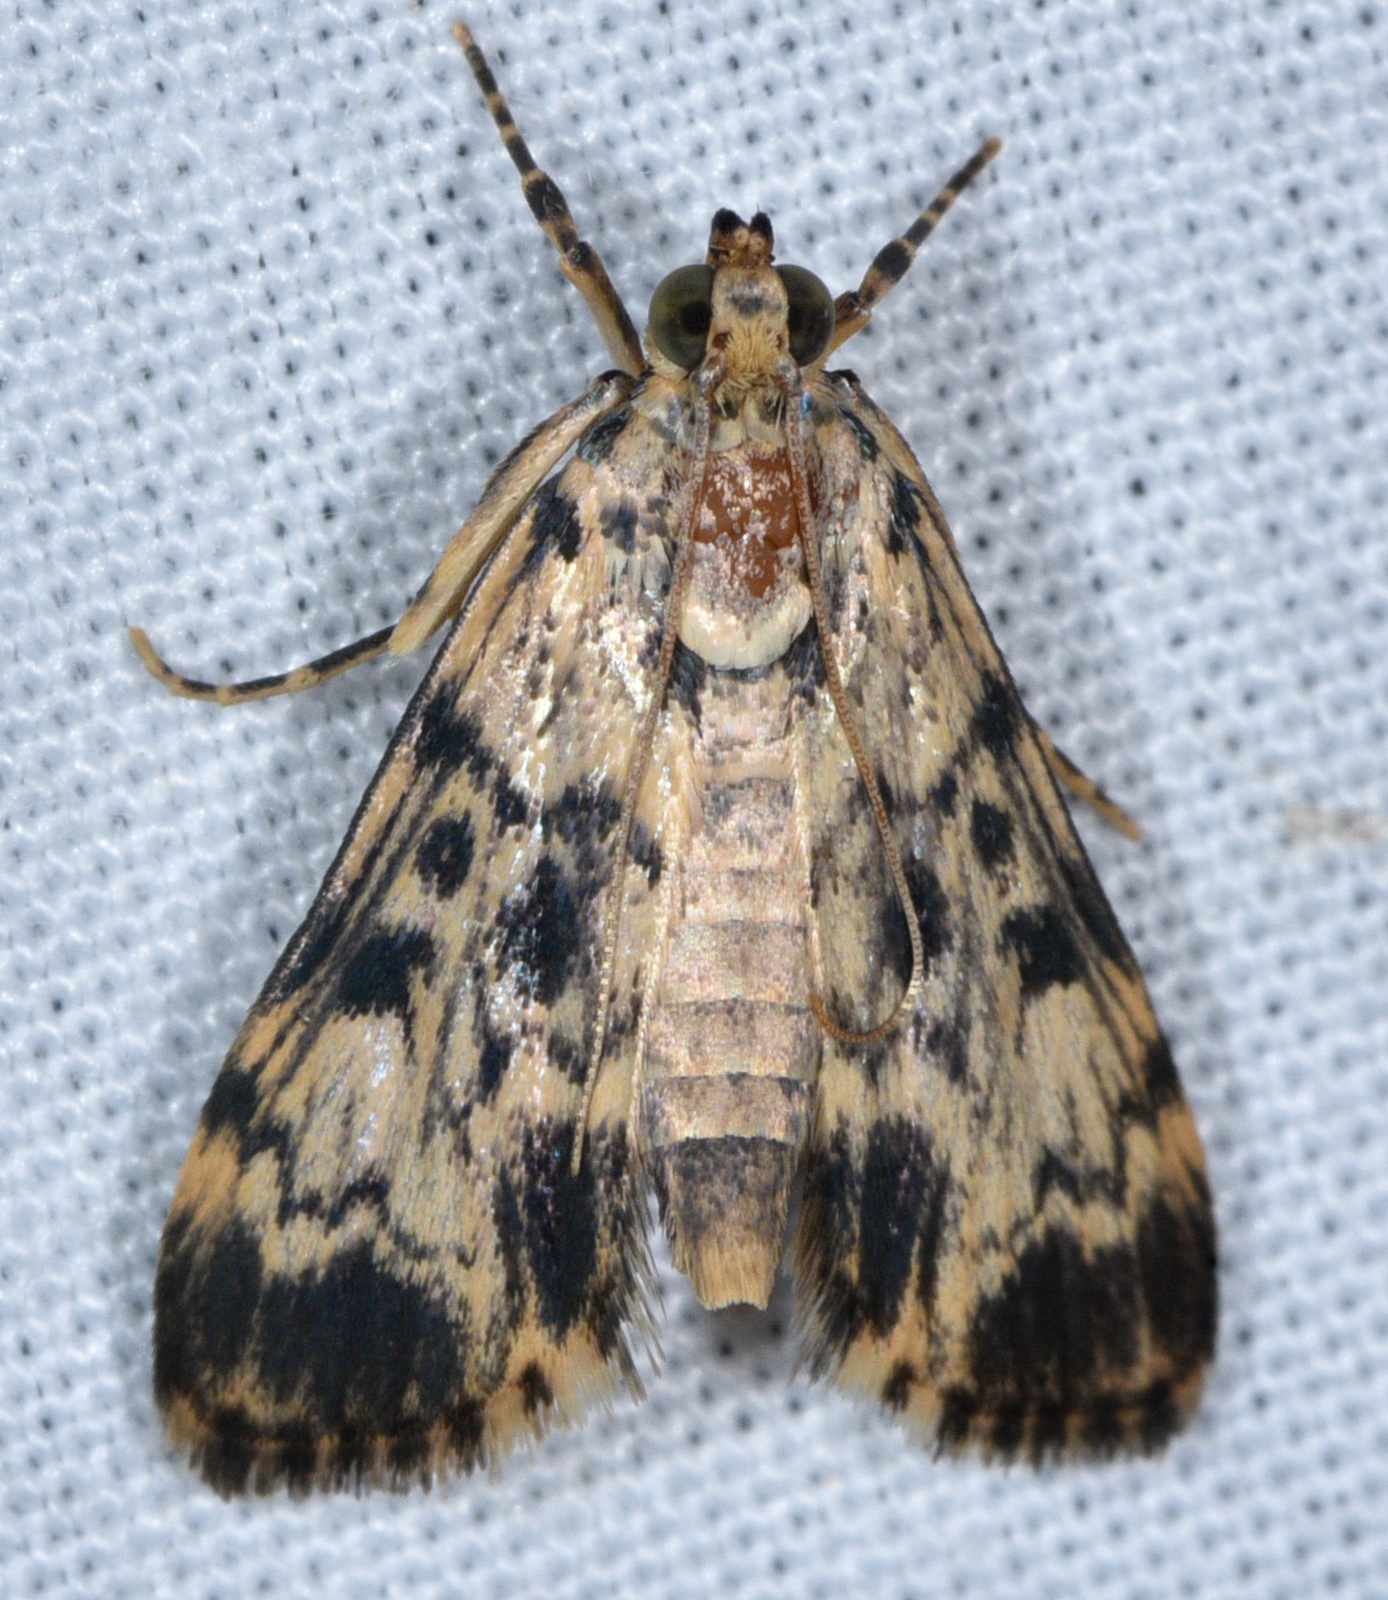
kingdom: Animalia
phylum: Arthropoda
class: Insecta
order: Lepidoptera
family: Crambidae
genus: Lamprosema
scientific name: Lamprosema Blepharomastix schistisemalis
